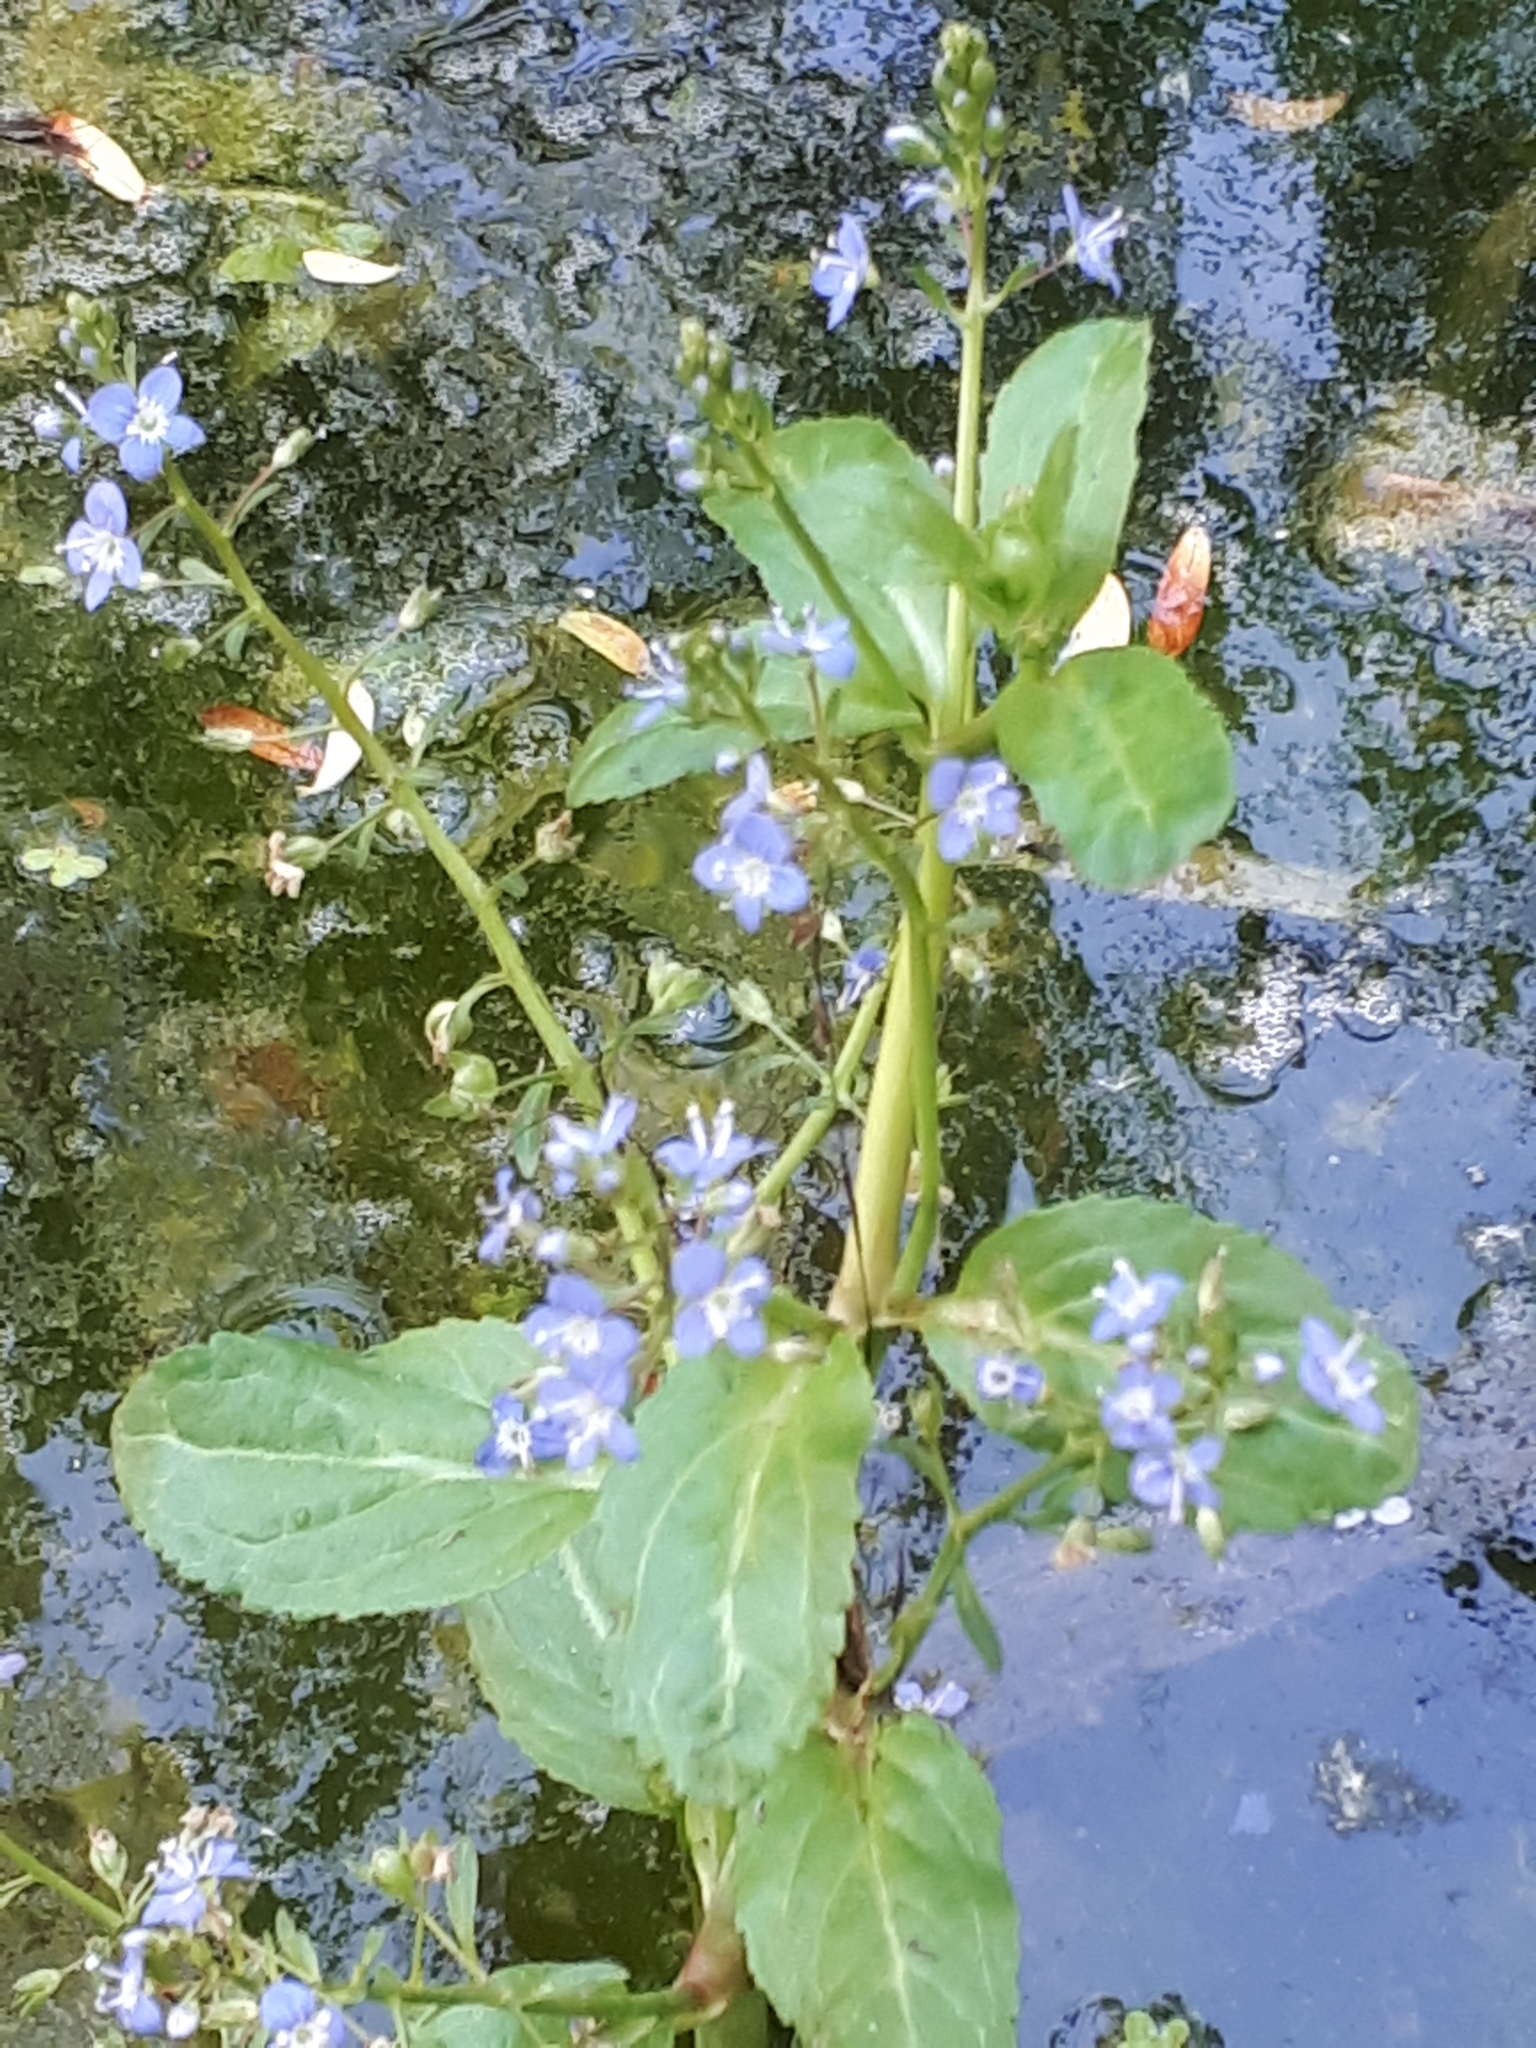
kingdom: Plantae
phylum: Tracheophyta
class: Magnoliopsida
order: Lamiales
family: Plantaginaceae
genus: Veronica
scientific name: Veronica beccabunga
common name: Brooklime
